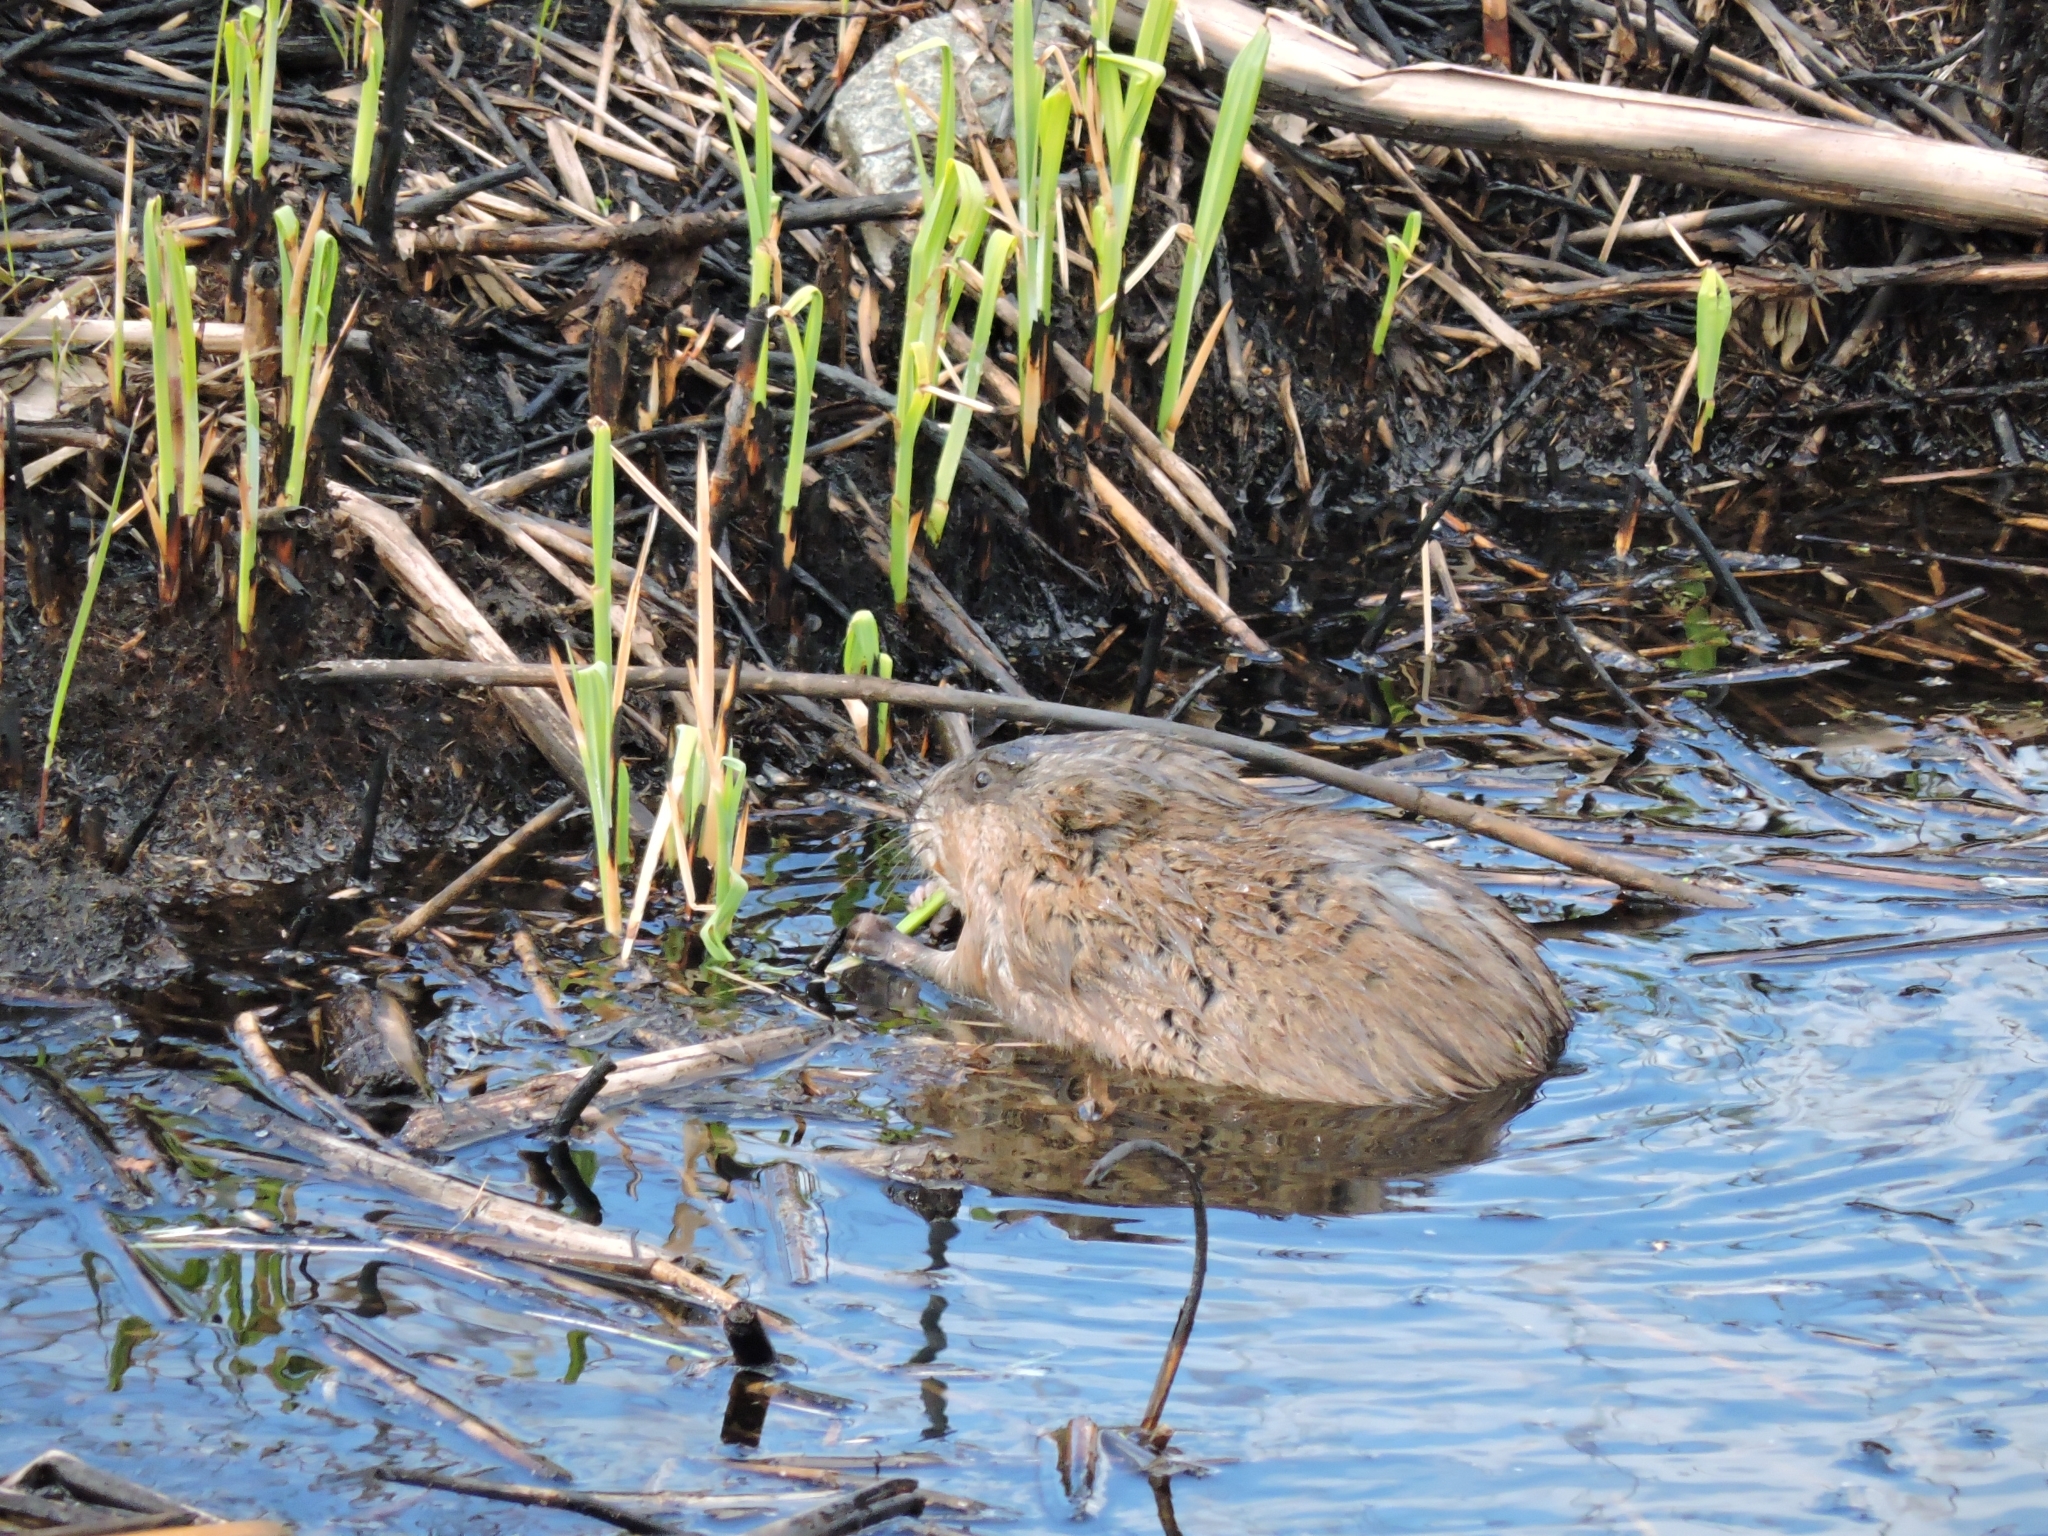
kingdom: Animalia
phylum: Chordata
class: Mammalia
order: Rodentia
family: Cricetidae
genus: Ondatra
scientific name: Ondatra zibethicus
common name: Muskrat
